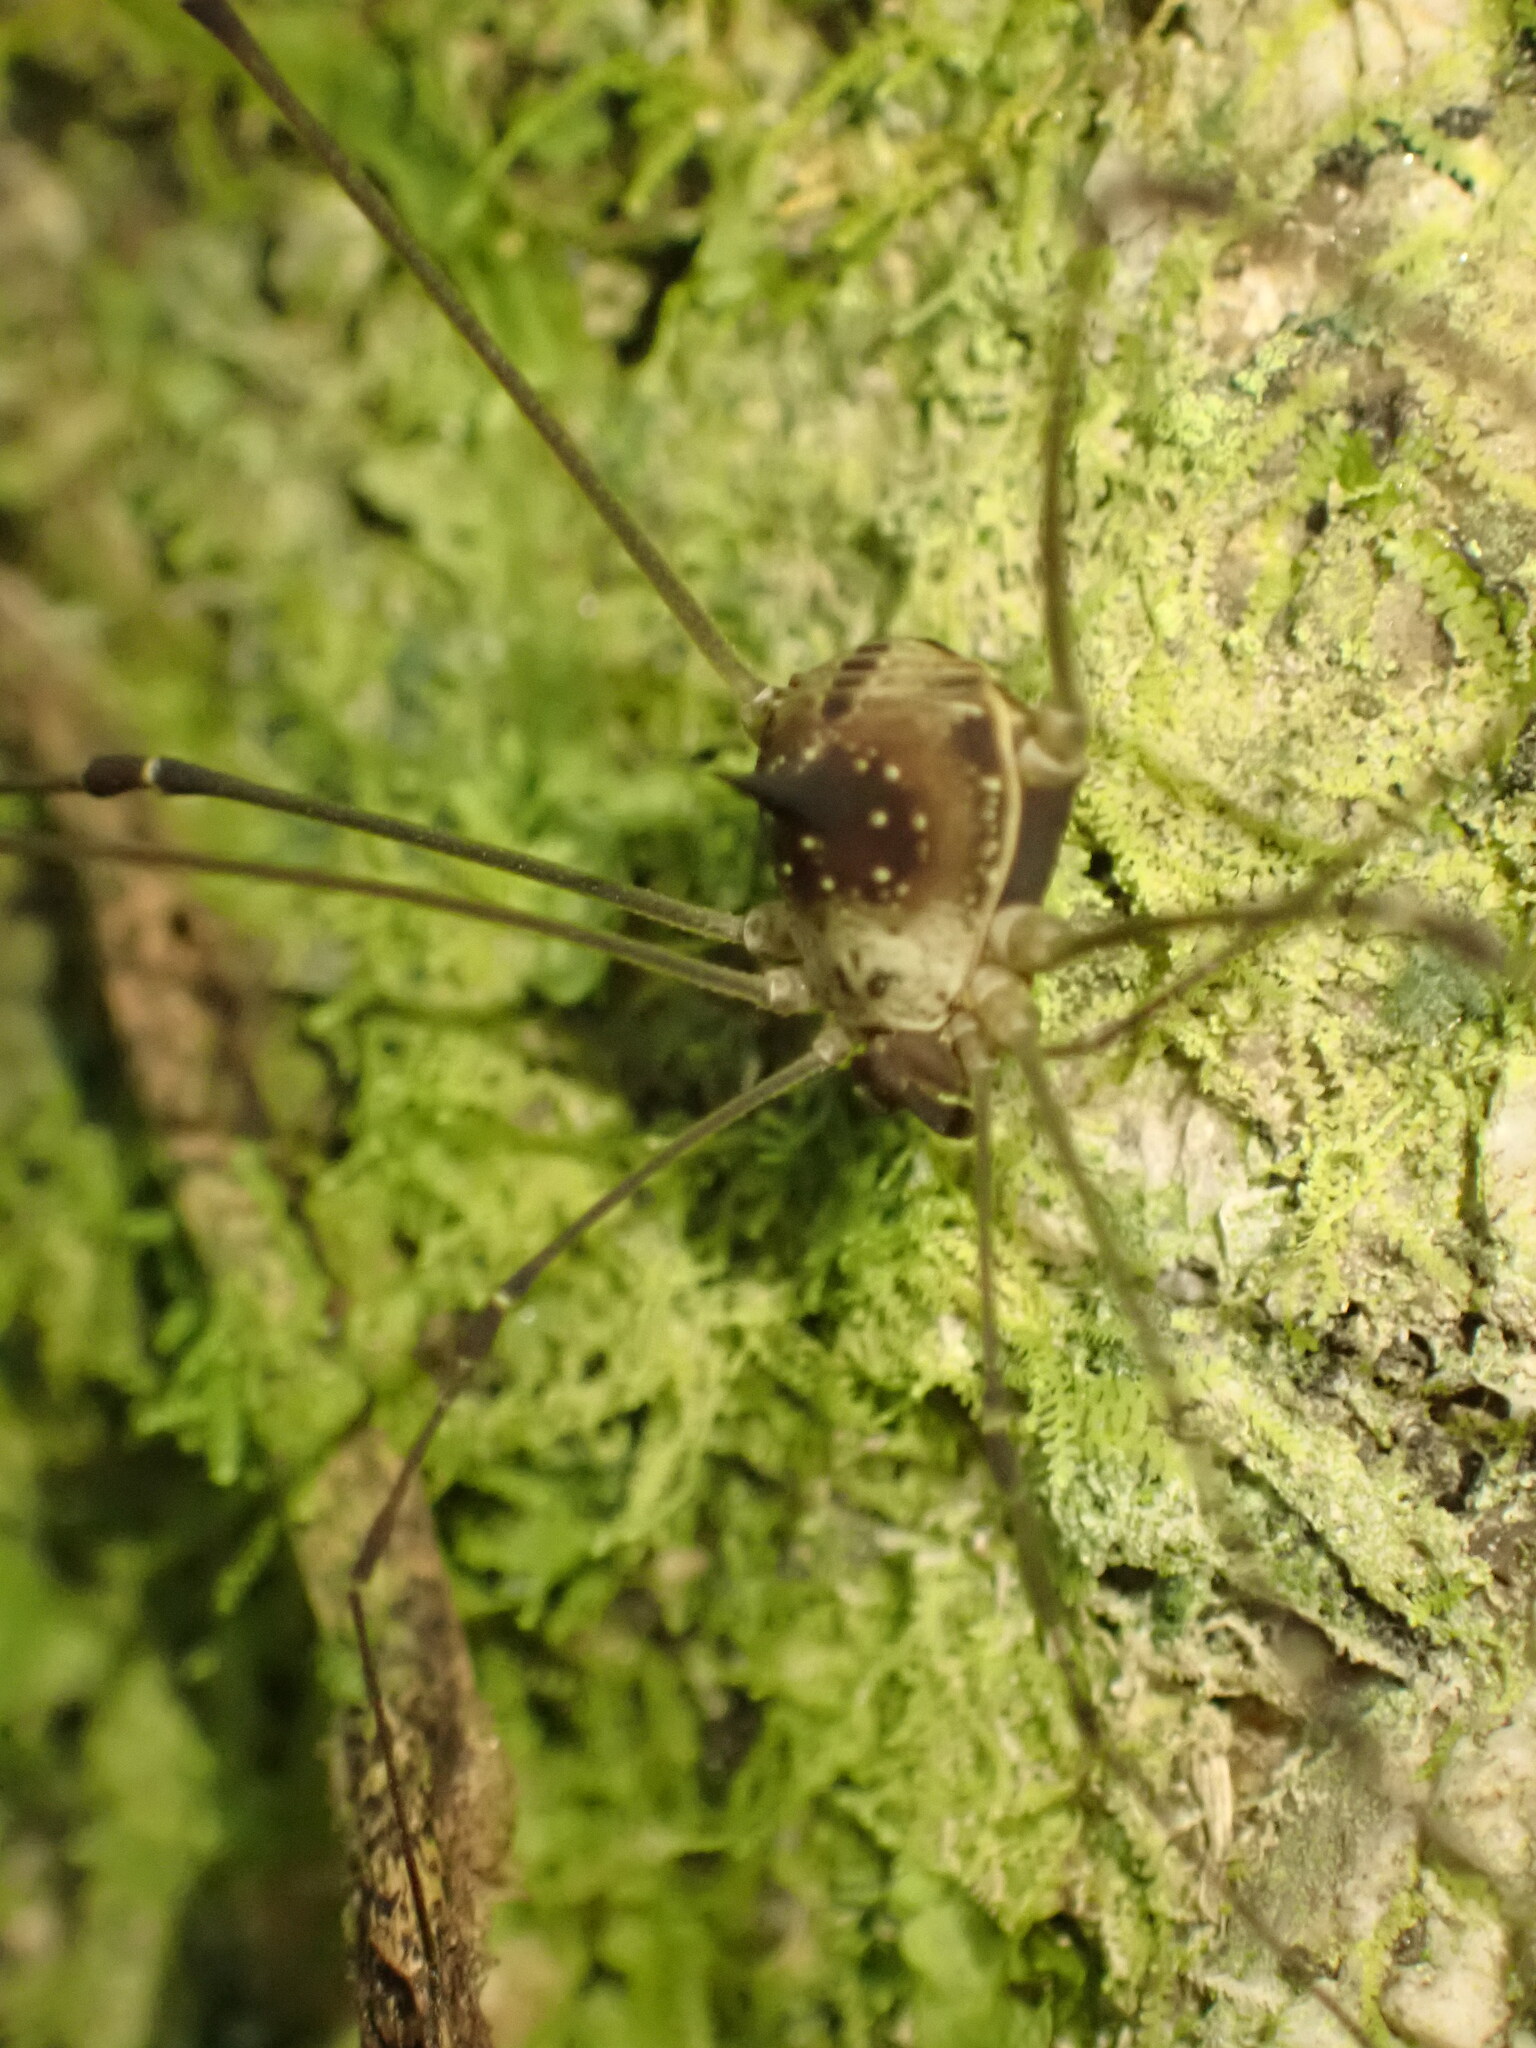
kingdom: Animalia
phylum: Arthropoda
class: Arachnida
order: Opiliones
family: Cosmetidae
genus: Cosmetus
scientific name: Cosmetus delicatus
